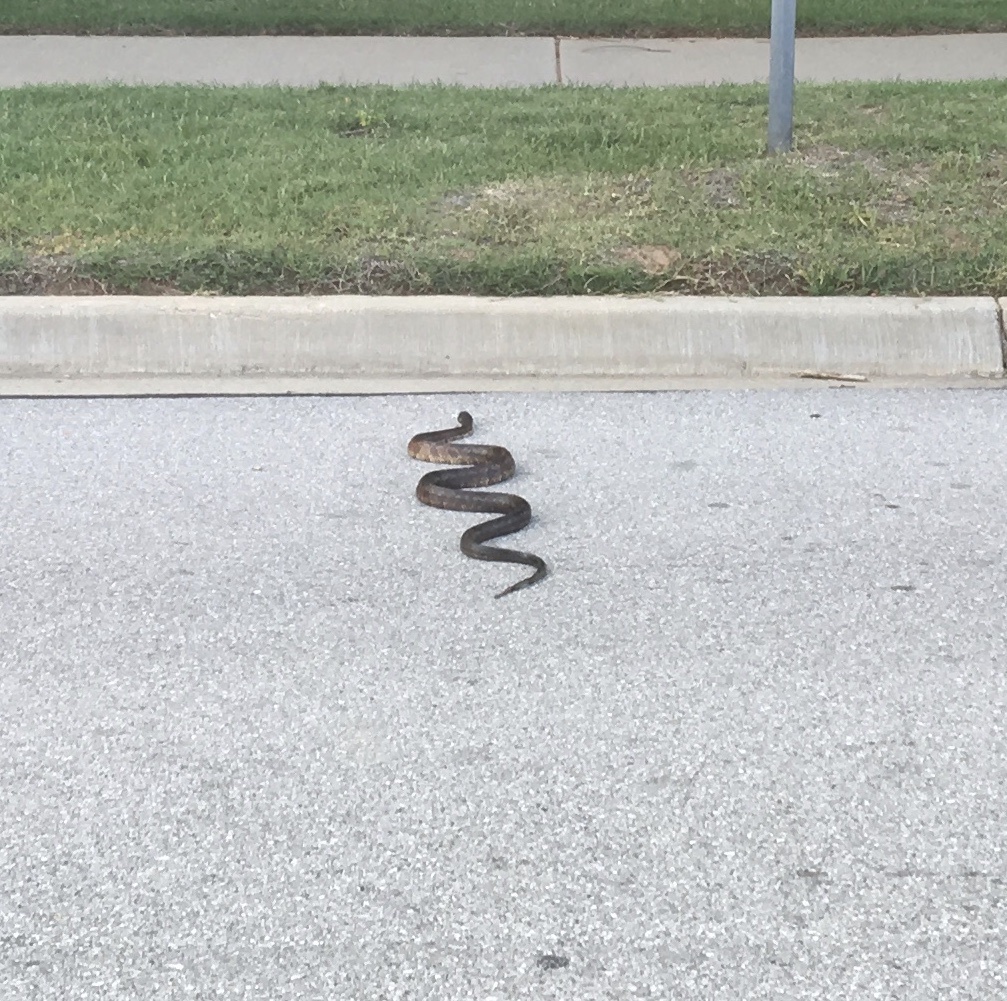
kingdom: Animalia
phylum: Chordata
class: Squamata
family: Colubridae
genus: Pantherophis
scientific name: Pantherophis obsoletus
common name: Black rat snake
